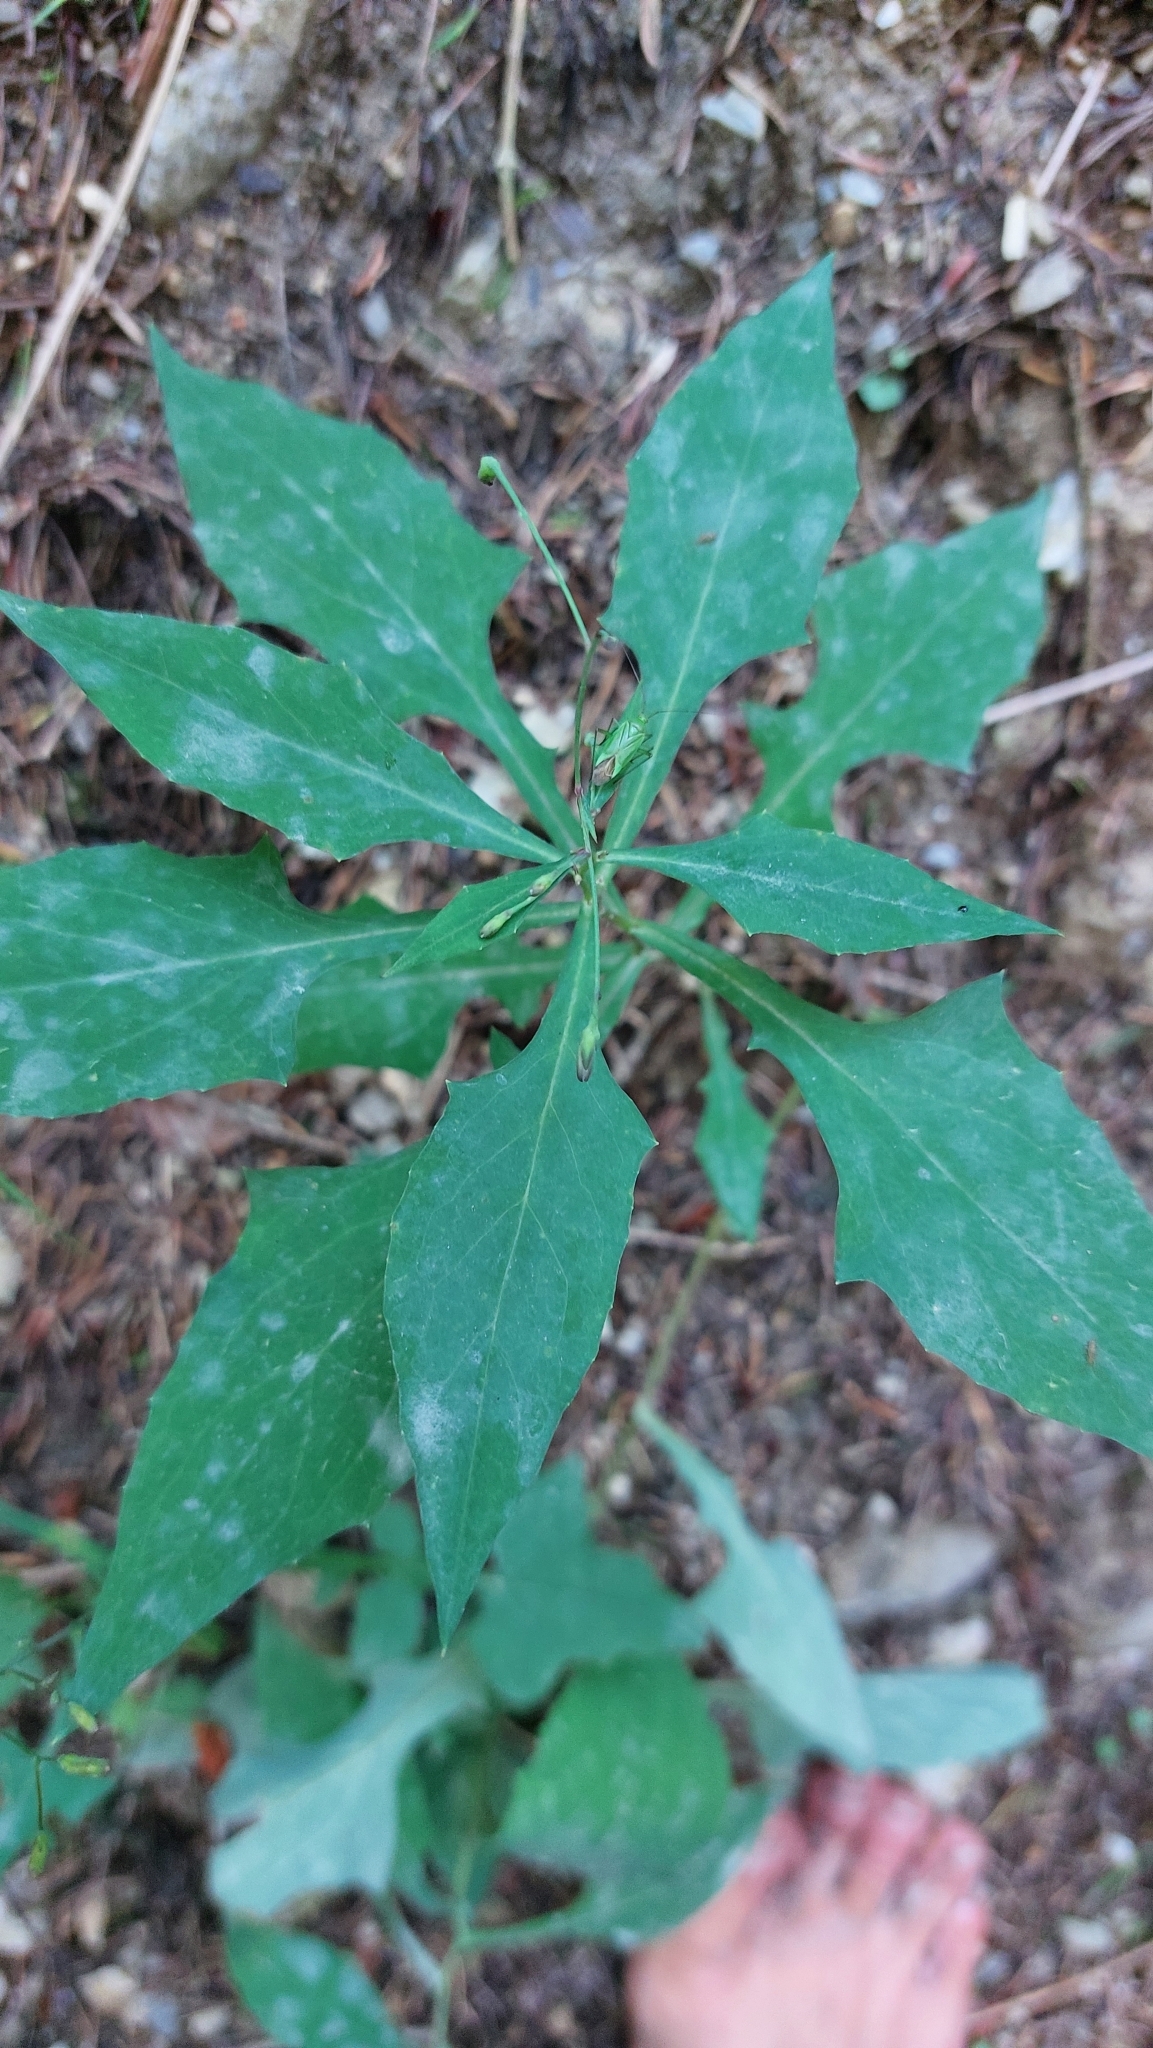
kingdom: Plantae
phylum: Tracheophyta
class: Magnoliopsida
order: Asterales
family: Asteraceae
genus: Prenanthes
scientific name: Prenanthes purpurea
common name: Purple lettuce
